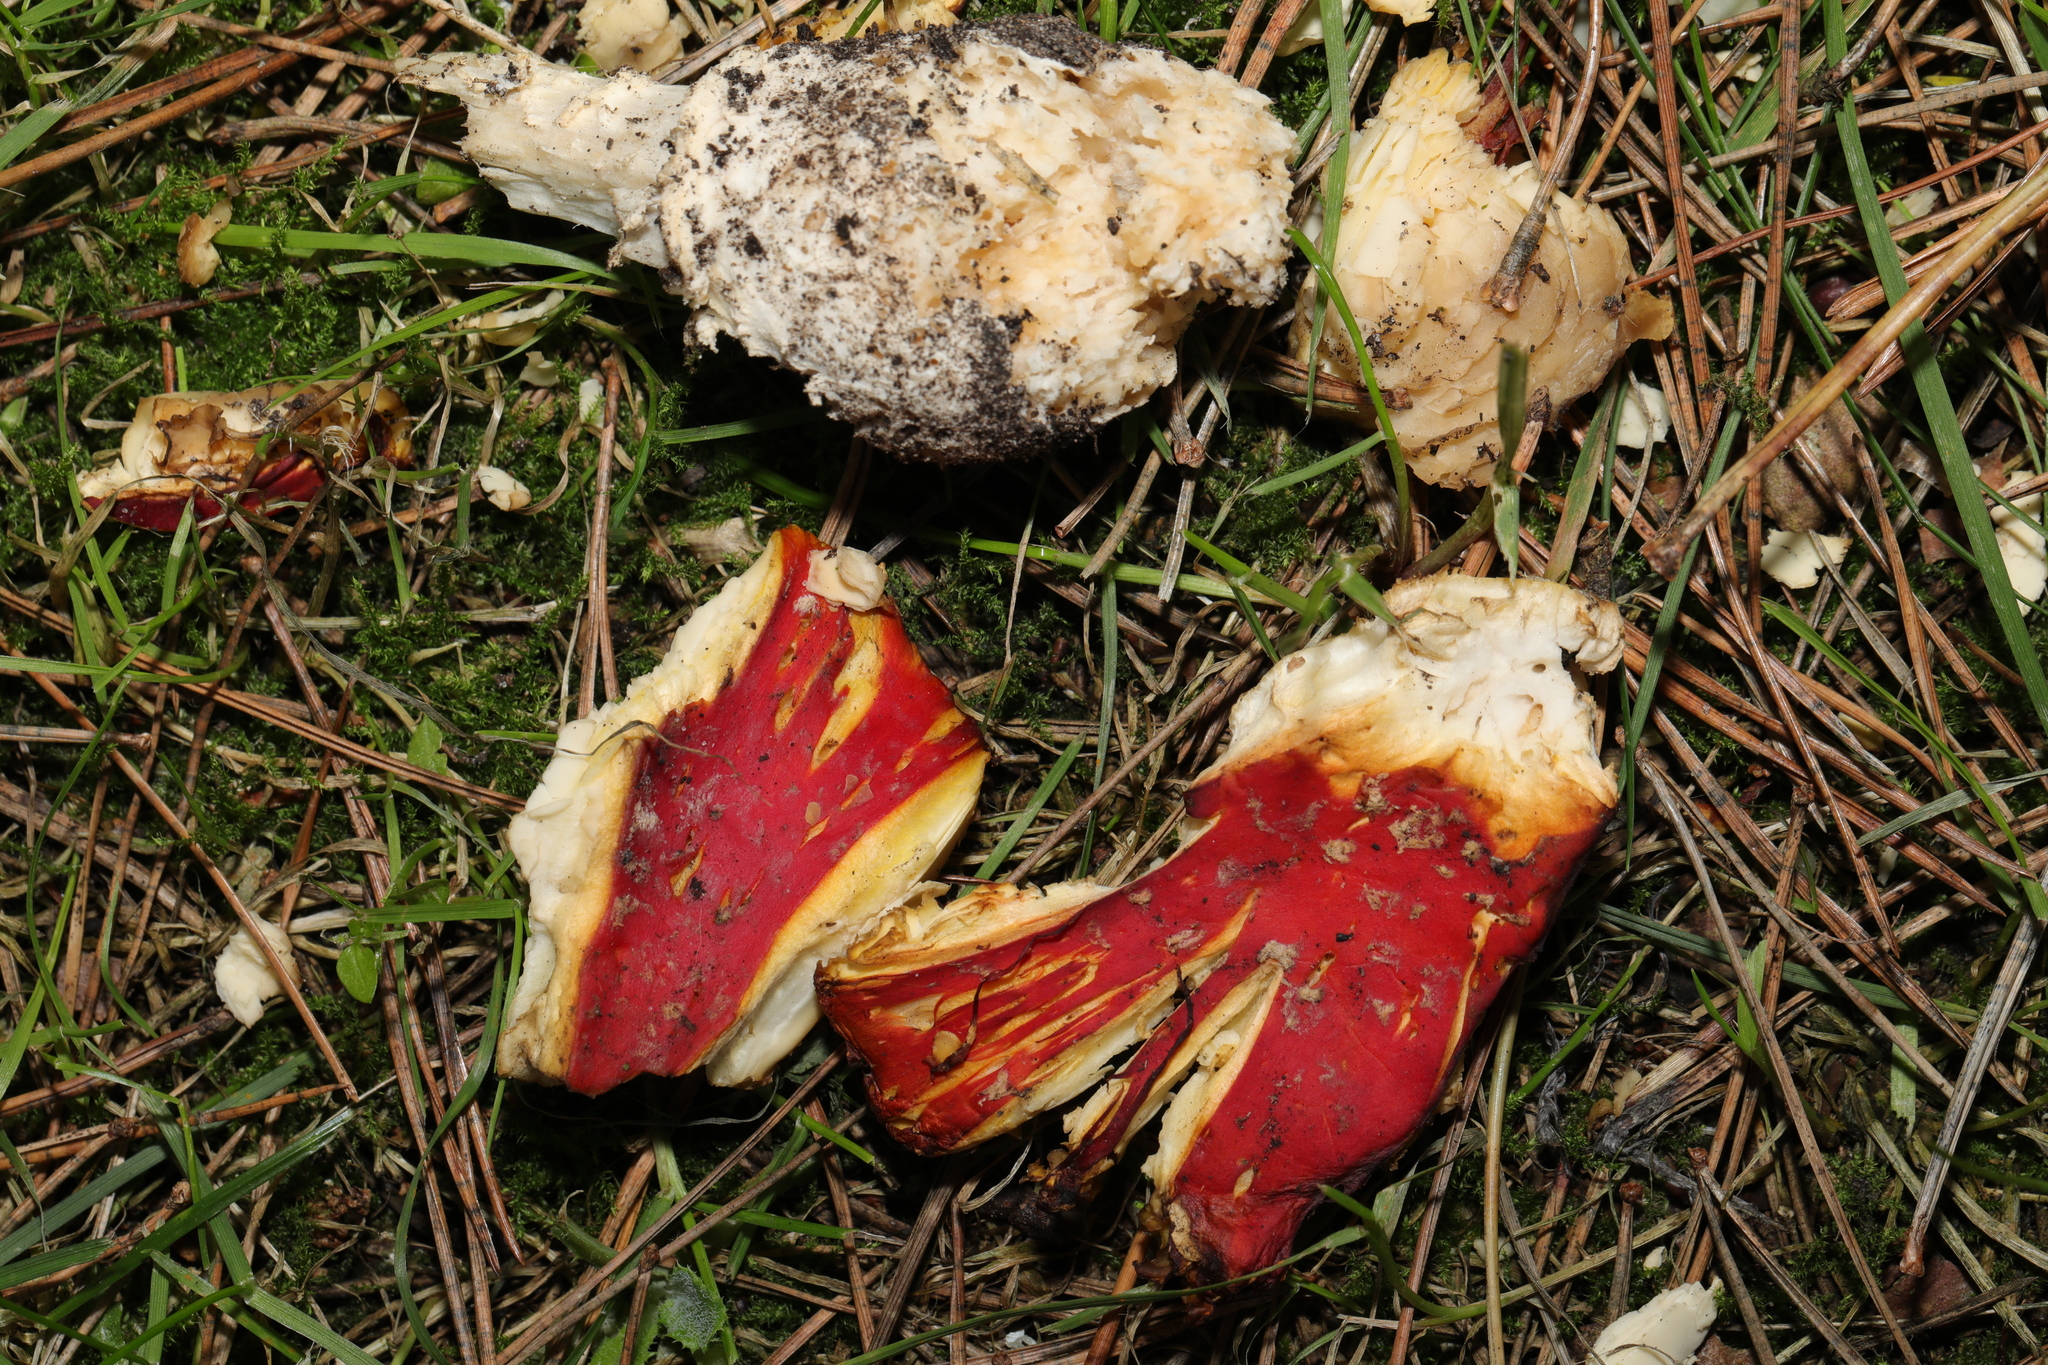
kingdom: Fungi
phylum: Basidiomycota
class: Agaricomycetes
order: Agaricales
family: Amanitaceae
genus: Amanita
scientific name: Amanita muscaria
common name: Fly agaric
